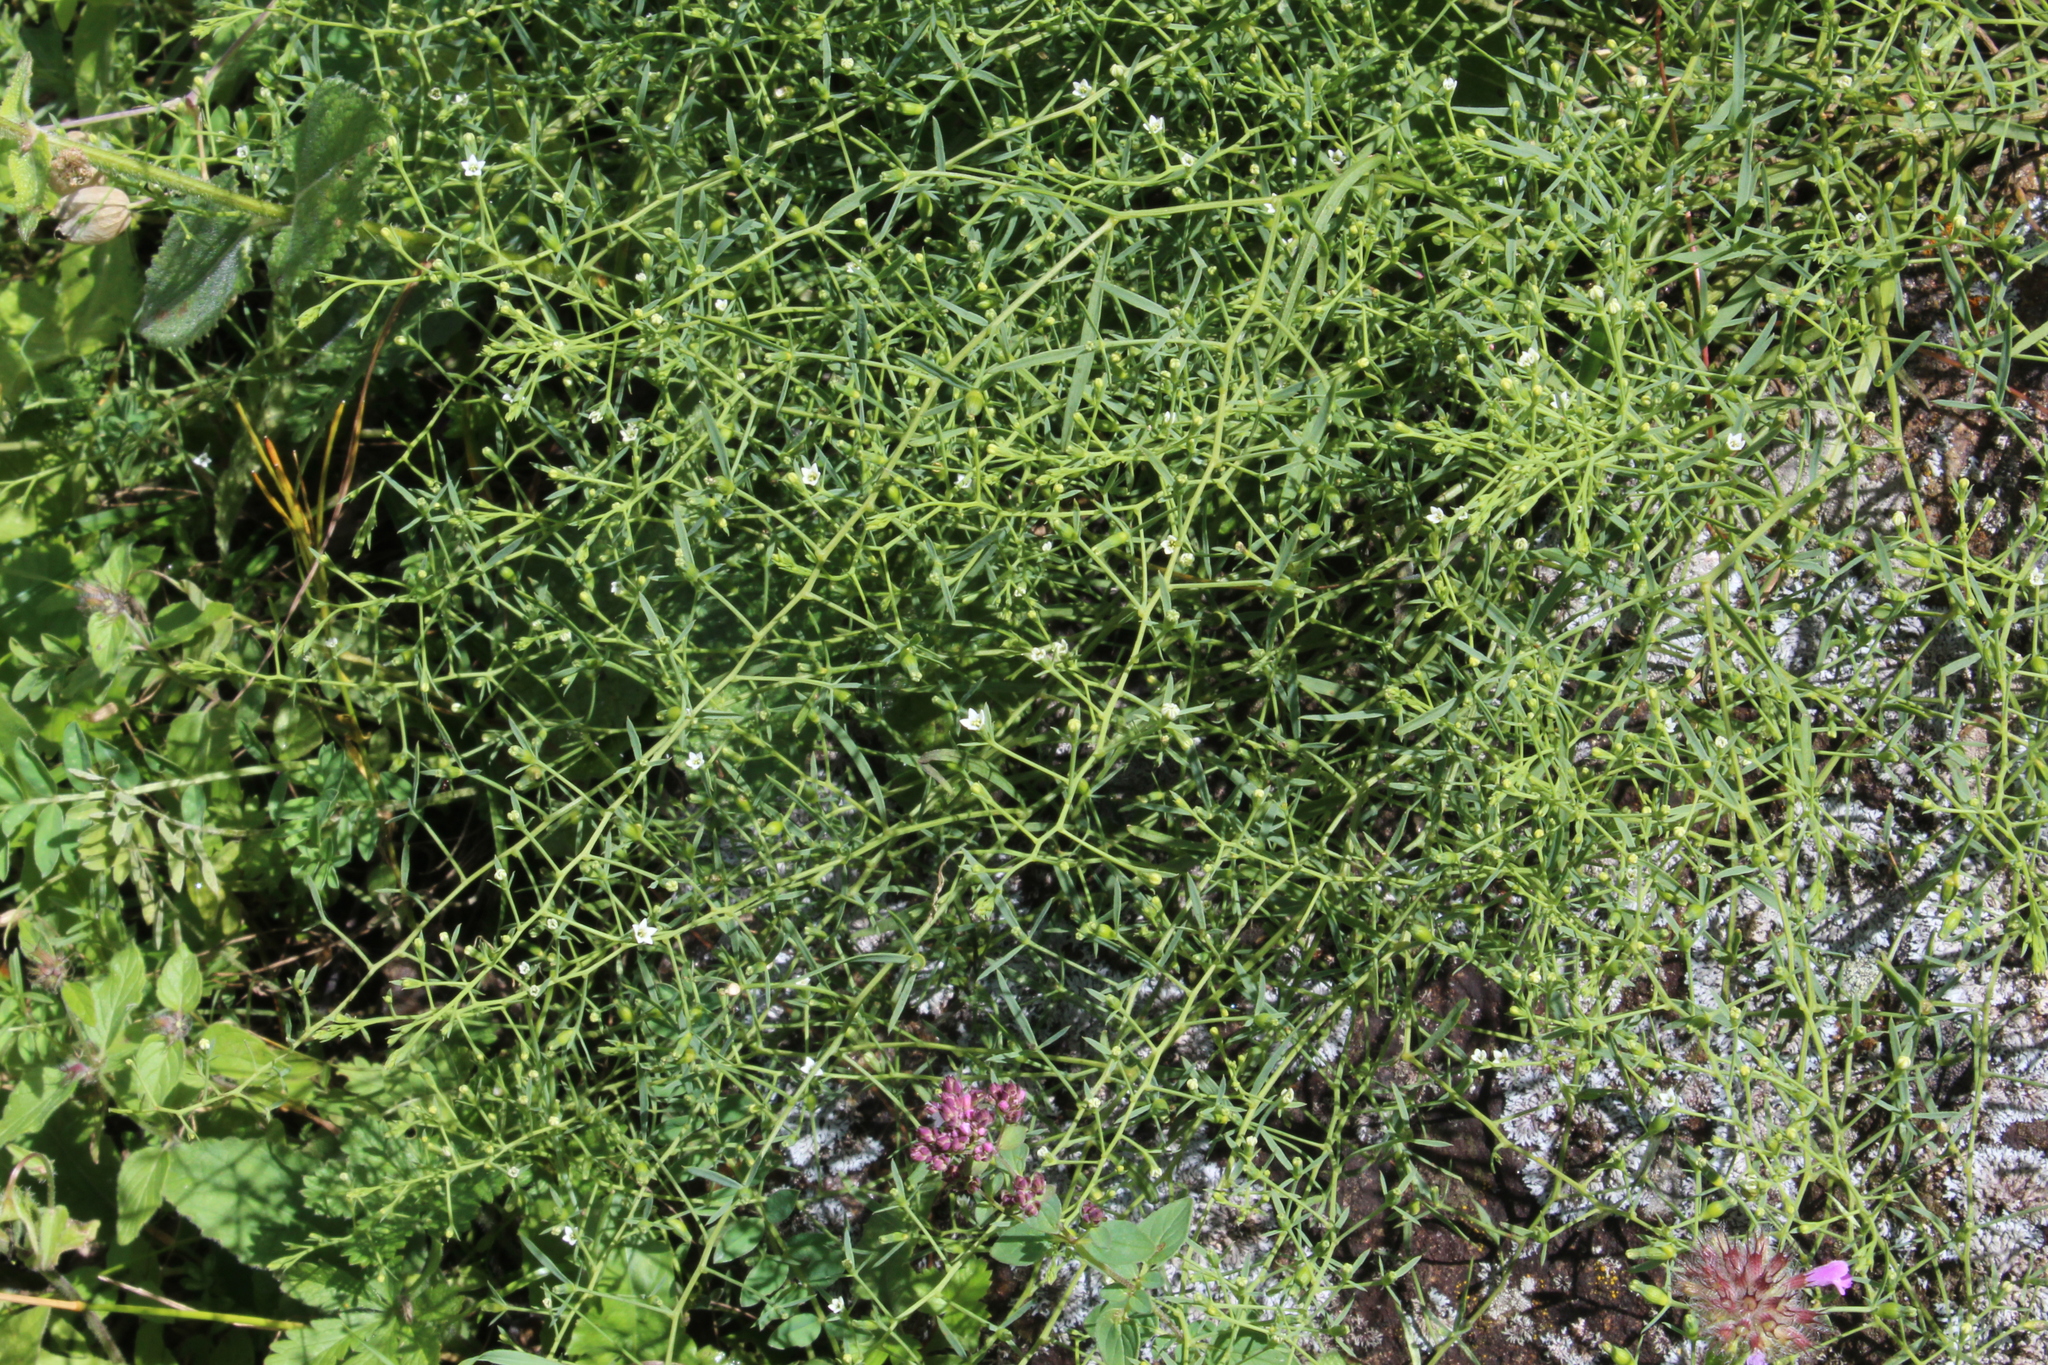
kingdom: Plantae
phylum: Tracheophyta
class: Magnoliopsida
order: Santalales
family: Thesiaceae
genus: Thesium
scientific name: Thesium ramosum
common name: Field thesium
